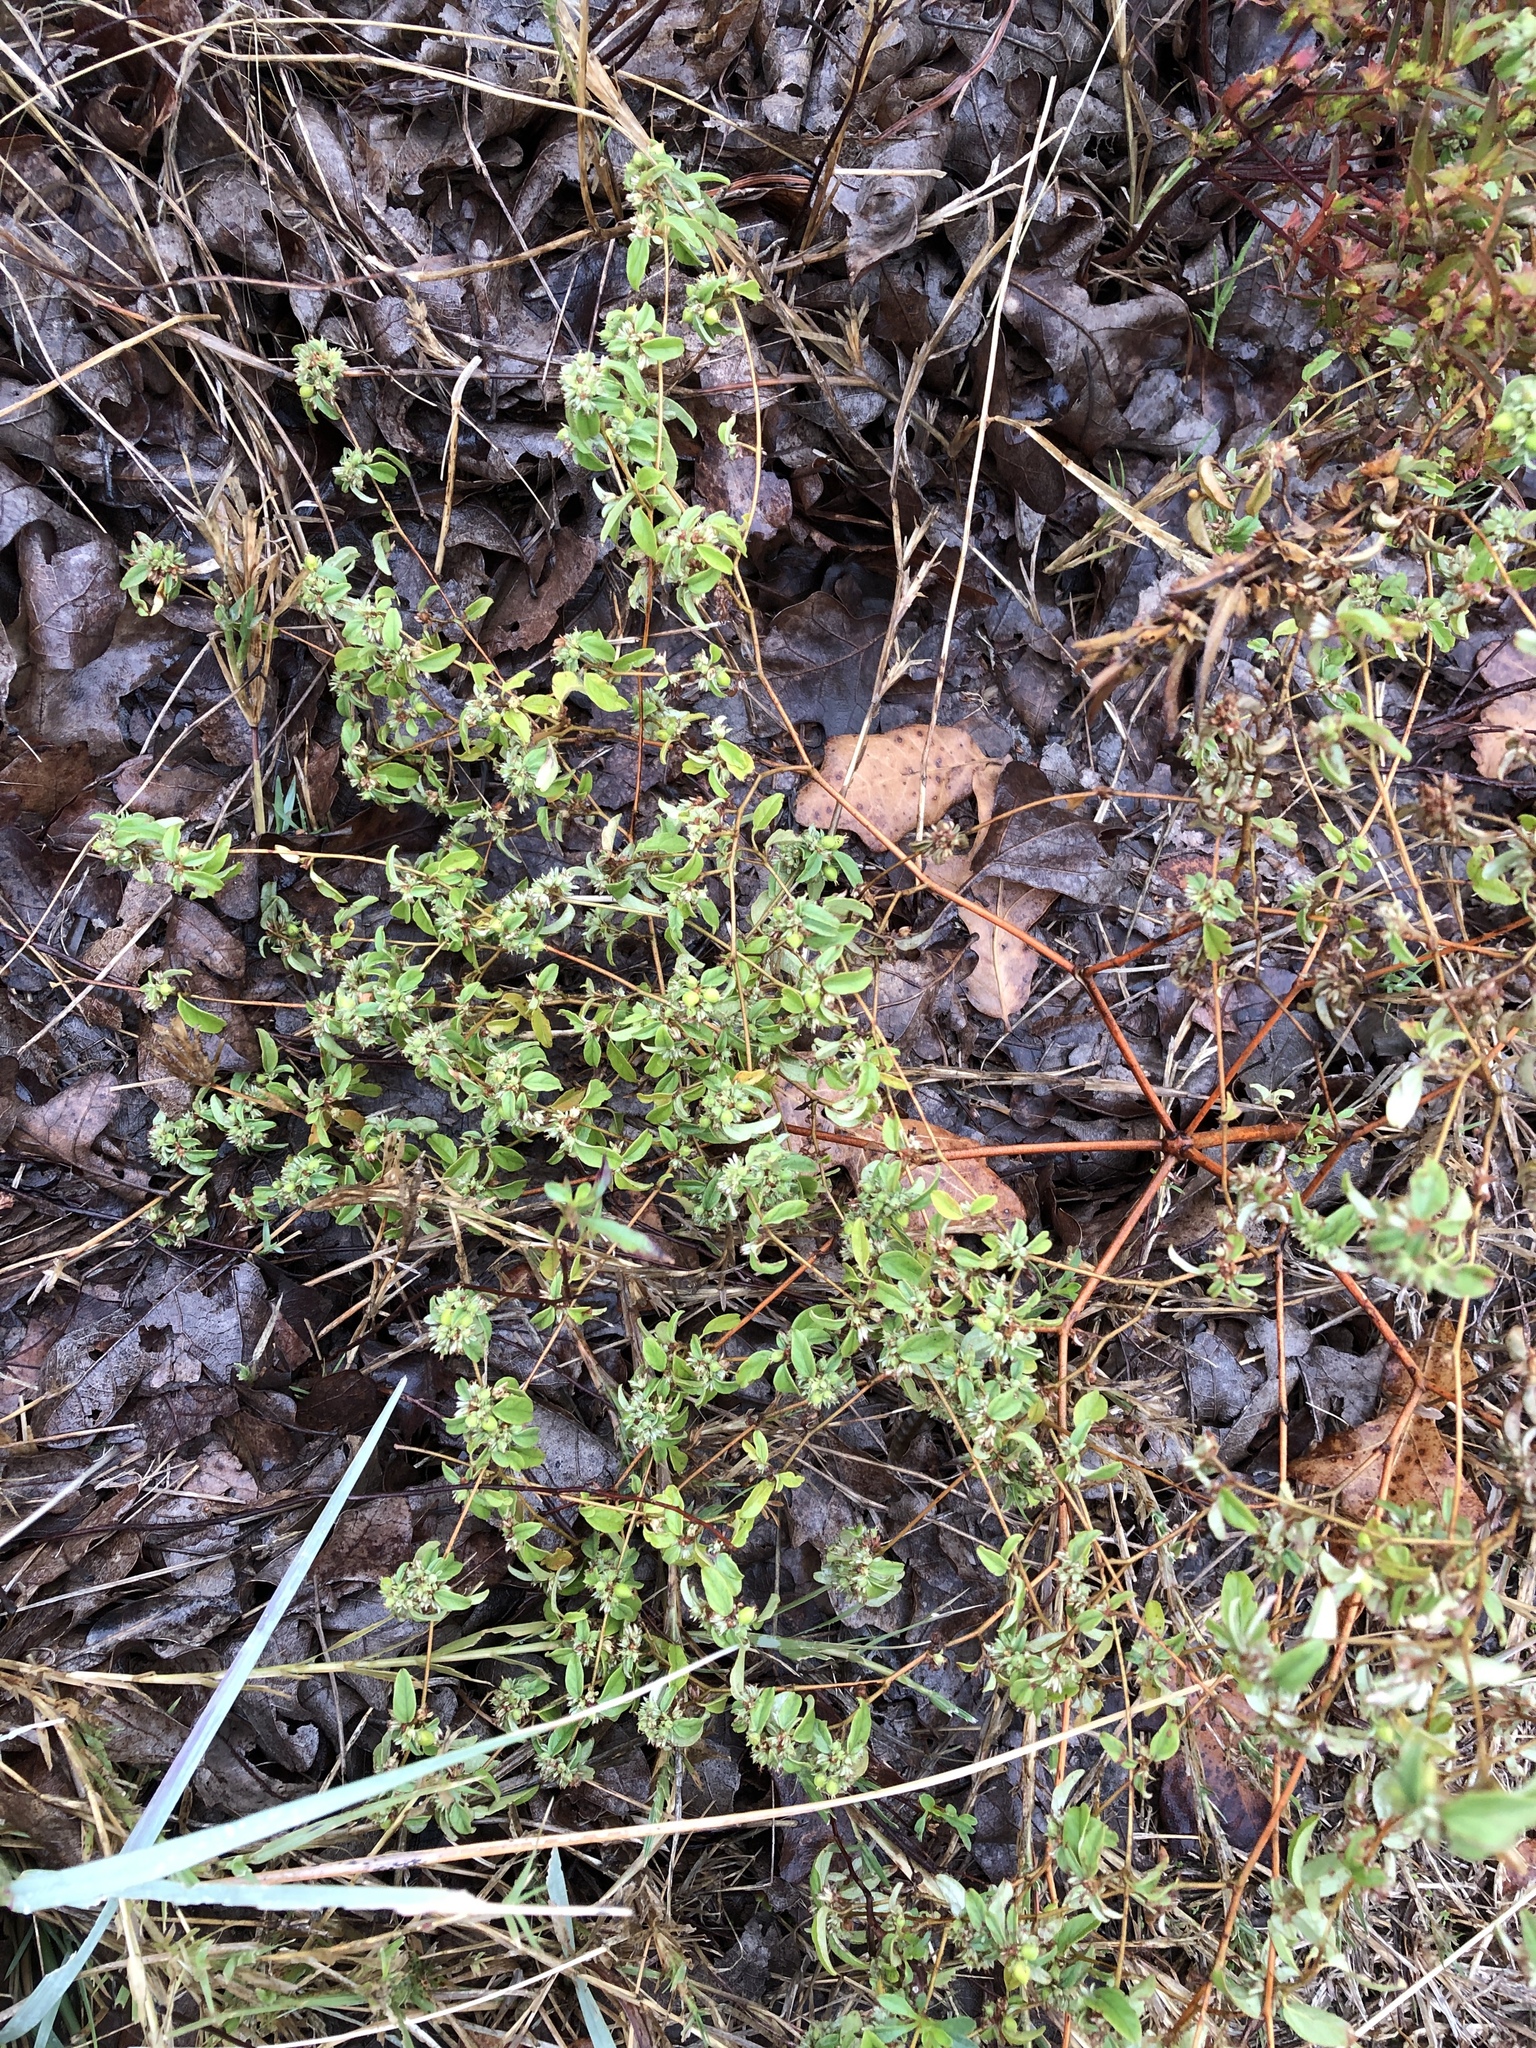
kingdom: Plantae
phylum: Tracheophyta
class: Magnoliopsida
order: Malpighiales
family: Euphorbiaceae
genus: Croton
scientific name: Croton monanthogynus
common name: One-seed croton
